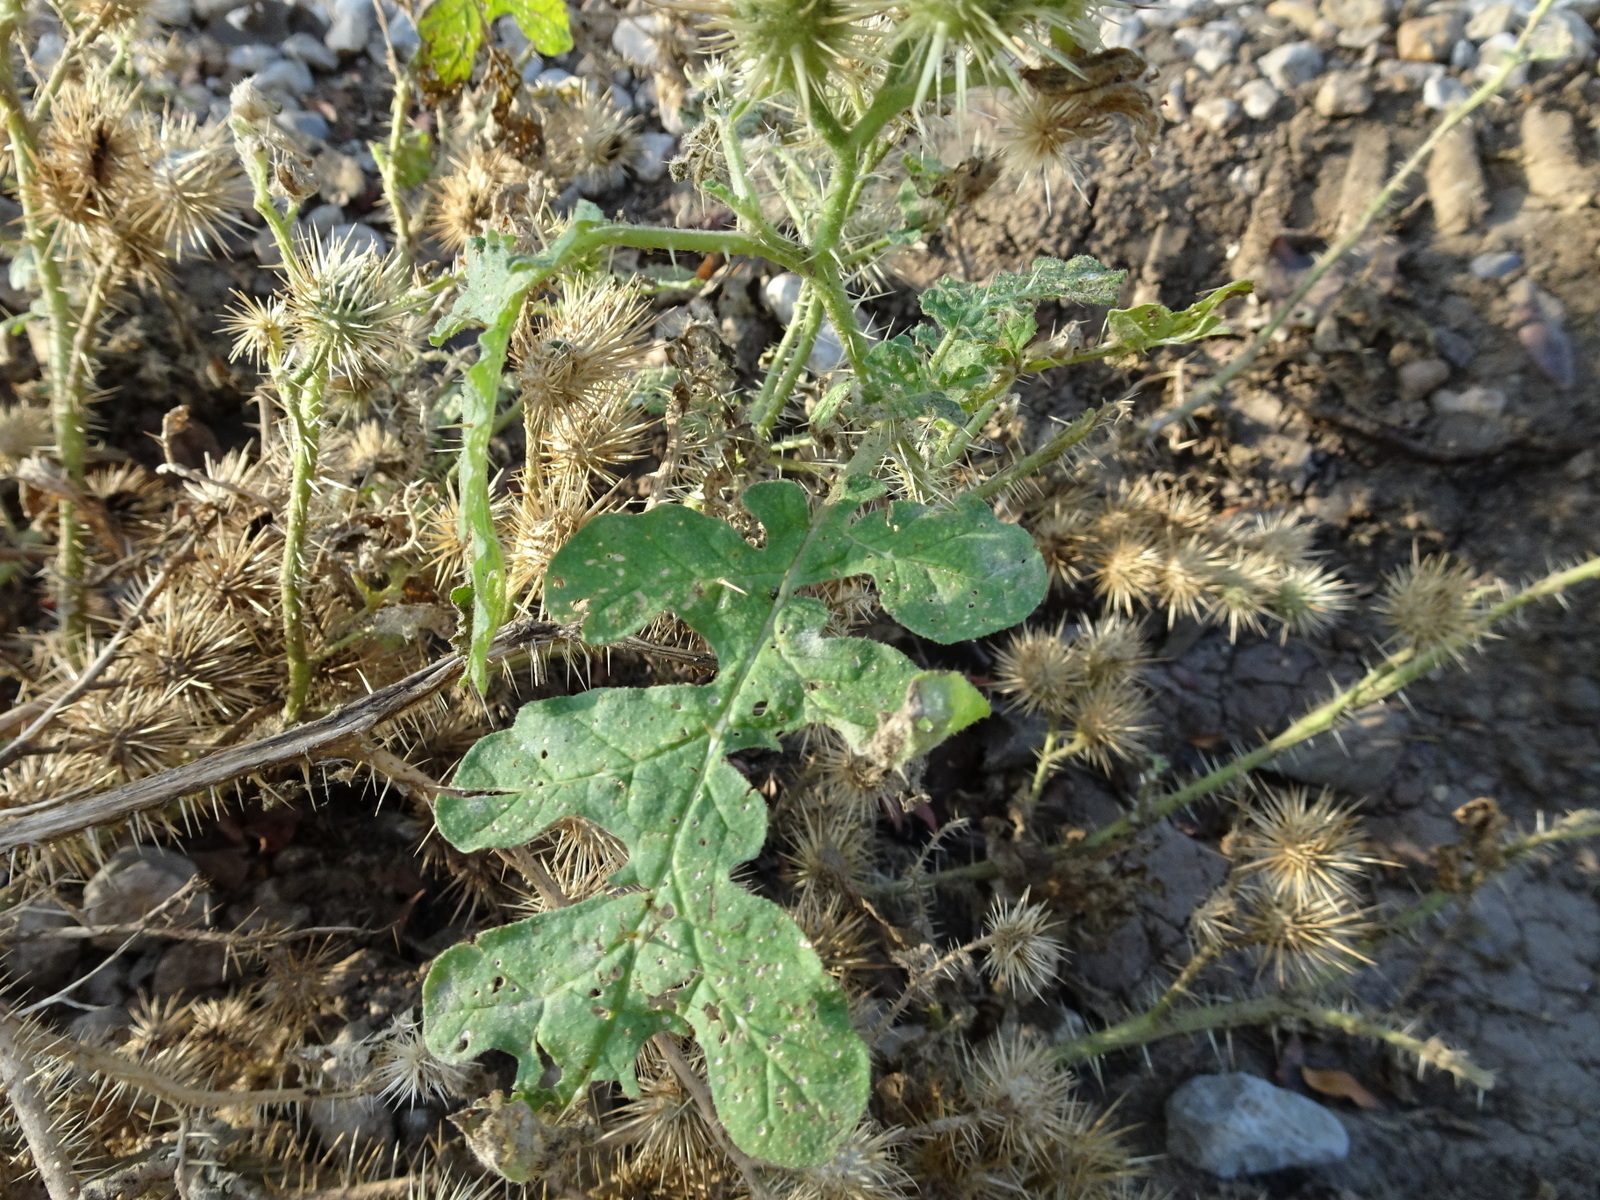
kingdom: Plantae
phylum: Tracheophyta
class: Magnoliopsida
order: Solanales
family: Solanaceae
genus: Solanum
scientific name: Solanum angustifolium
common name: Buffalobur nightshade
